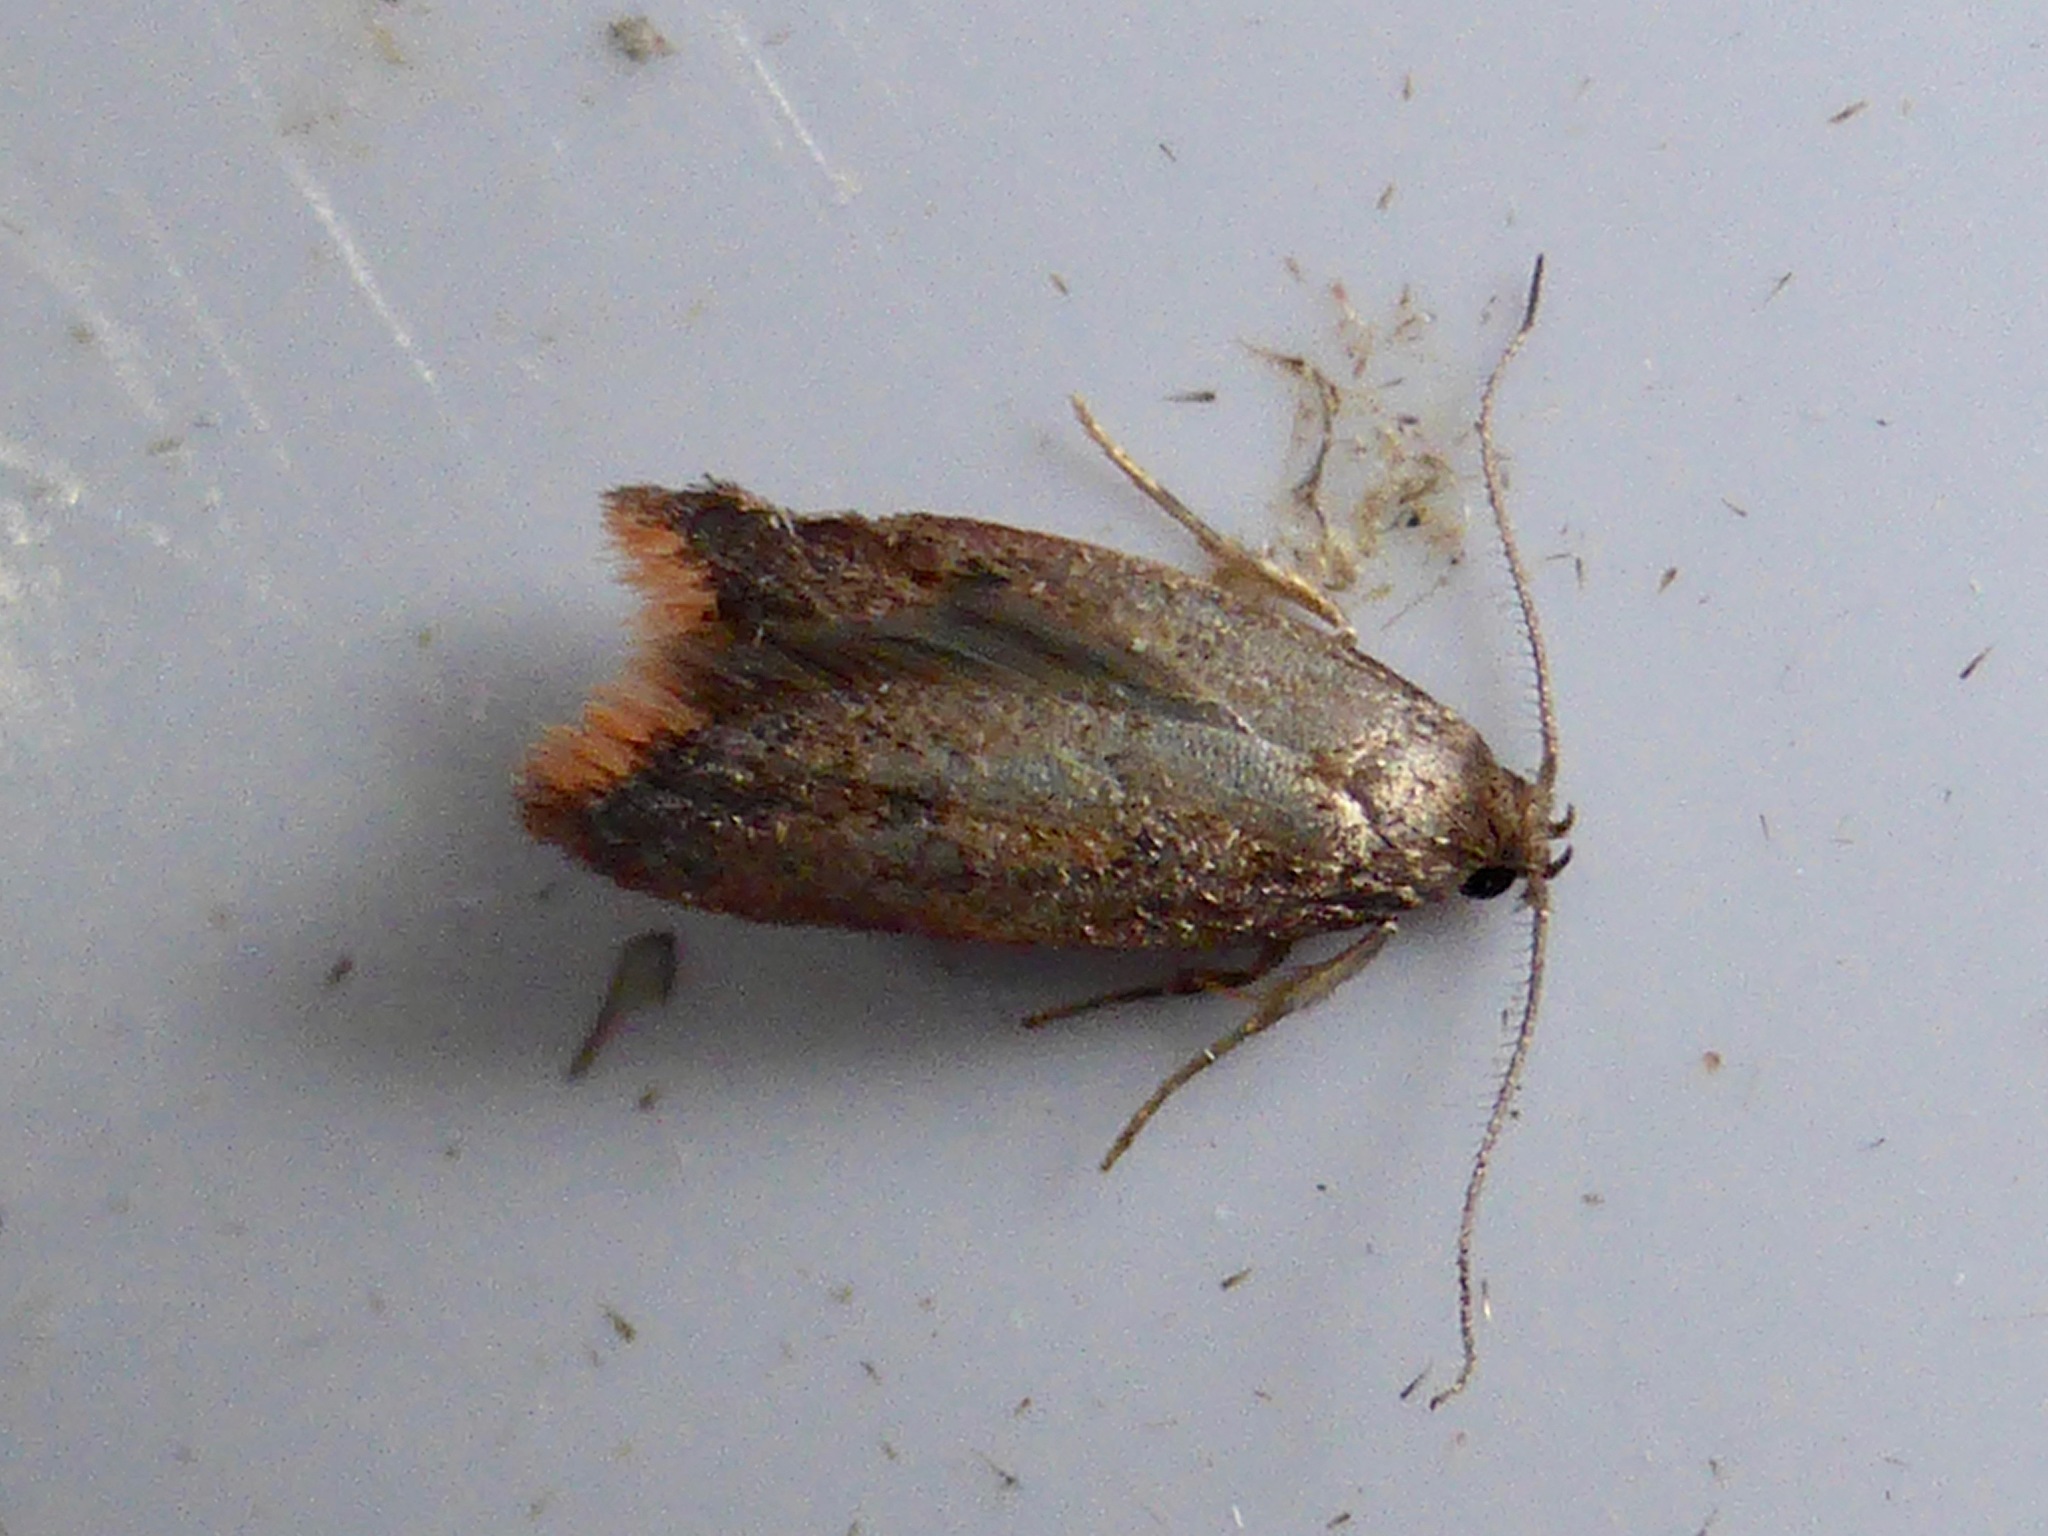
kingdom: Animalia
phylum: Arthropoda
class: Insecta
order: Lepidoptera
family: Oecophoridae
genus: Tachystola
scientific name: Tachystola acroxantha
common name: Ruddy streak
